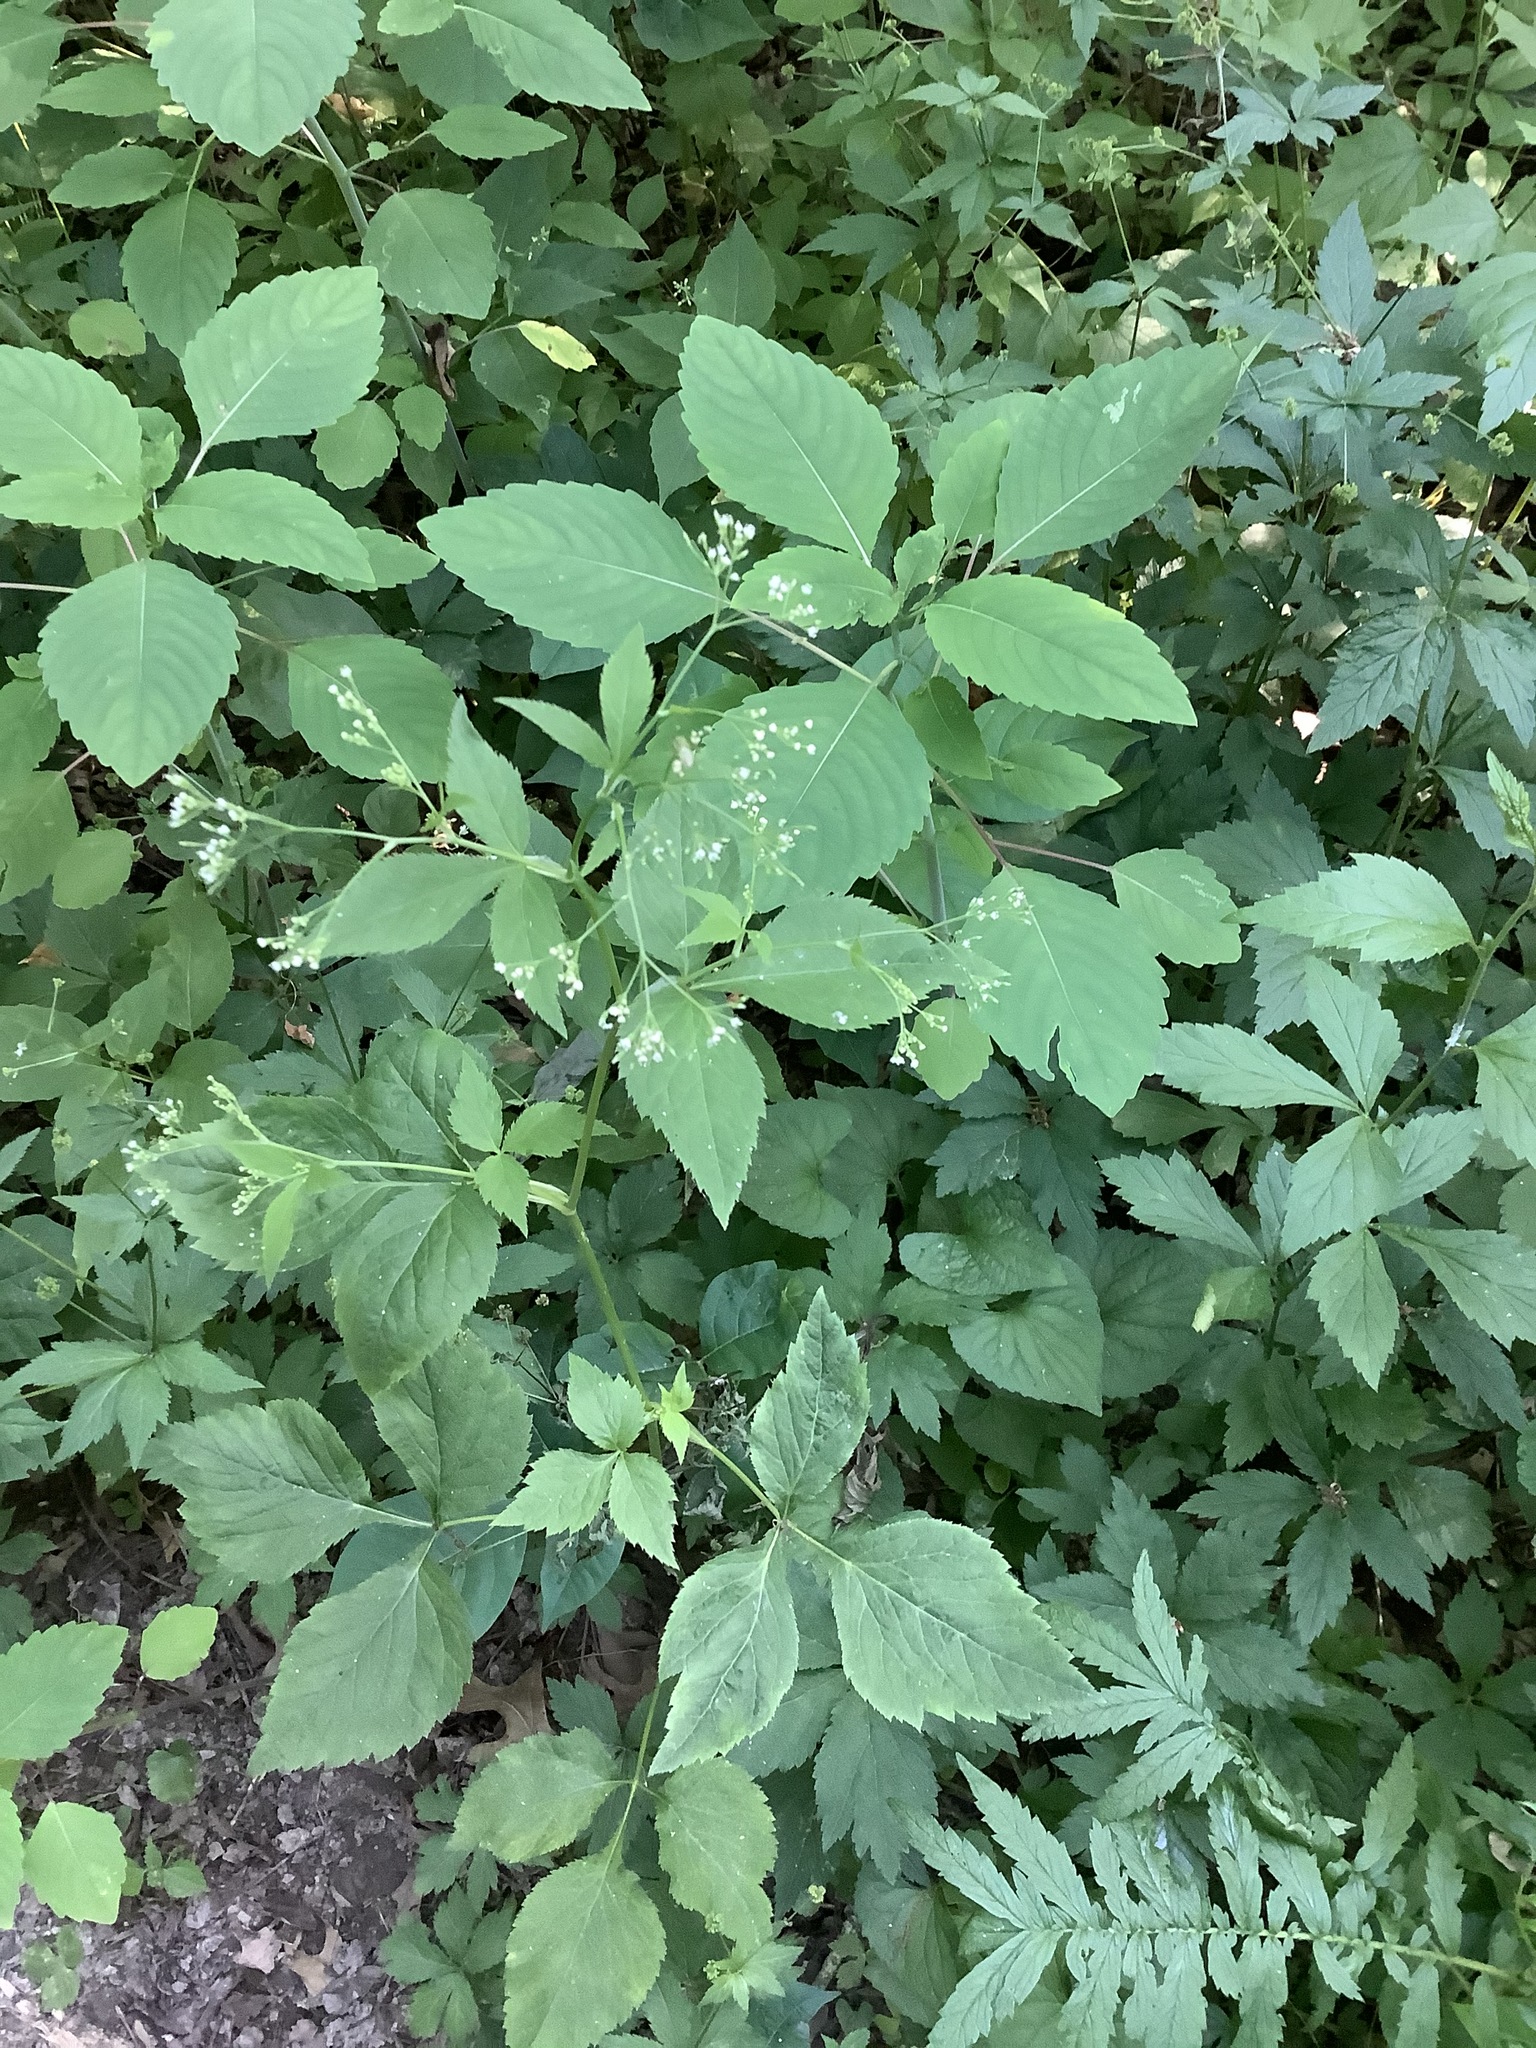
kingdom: Plantae
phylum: Tracheophyta
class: Magnoliopsida
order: Apiales
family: Apiaceae
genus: Cryptotaenia
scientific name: Cryptotaenia canadensis
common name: Honewort
